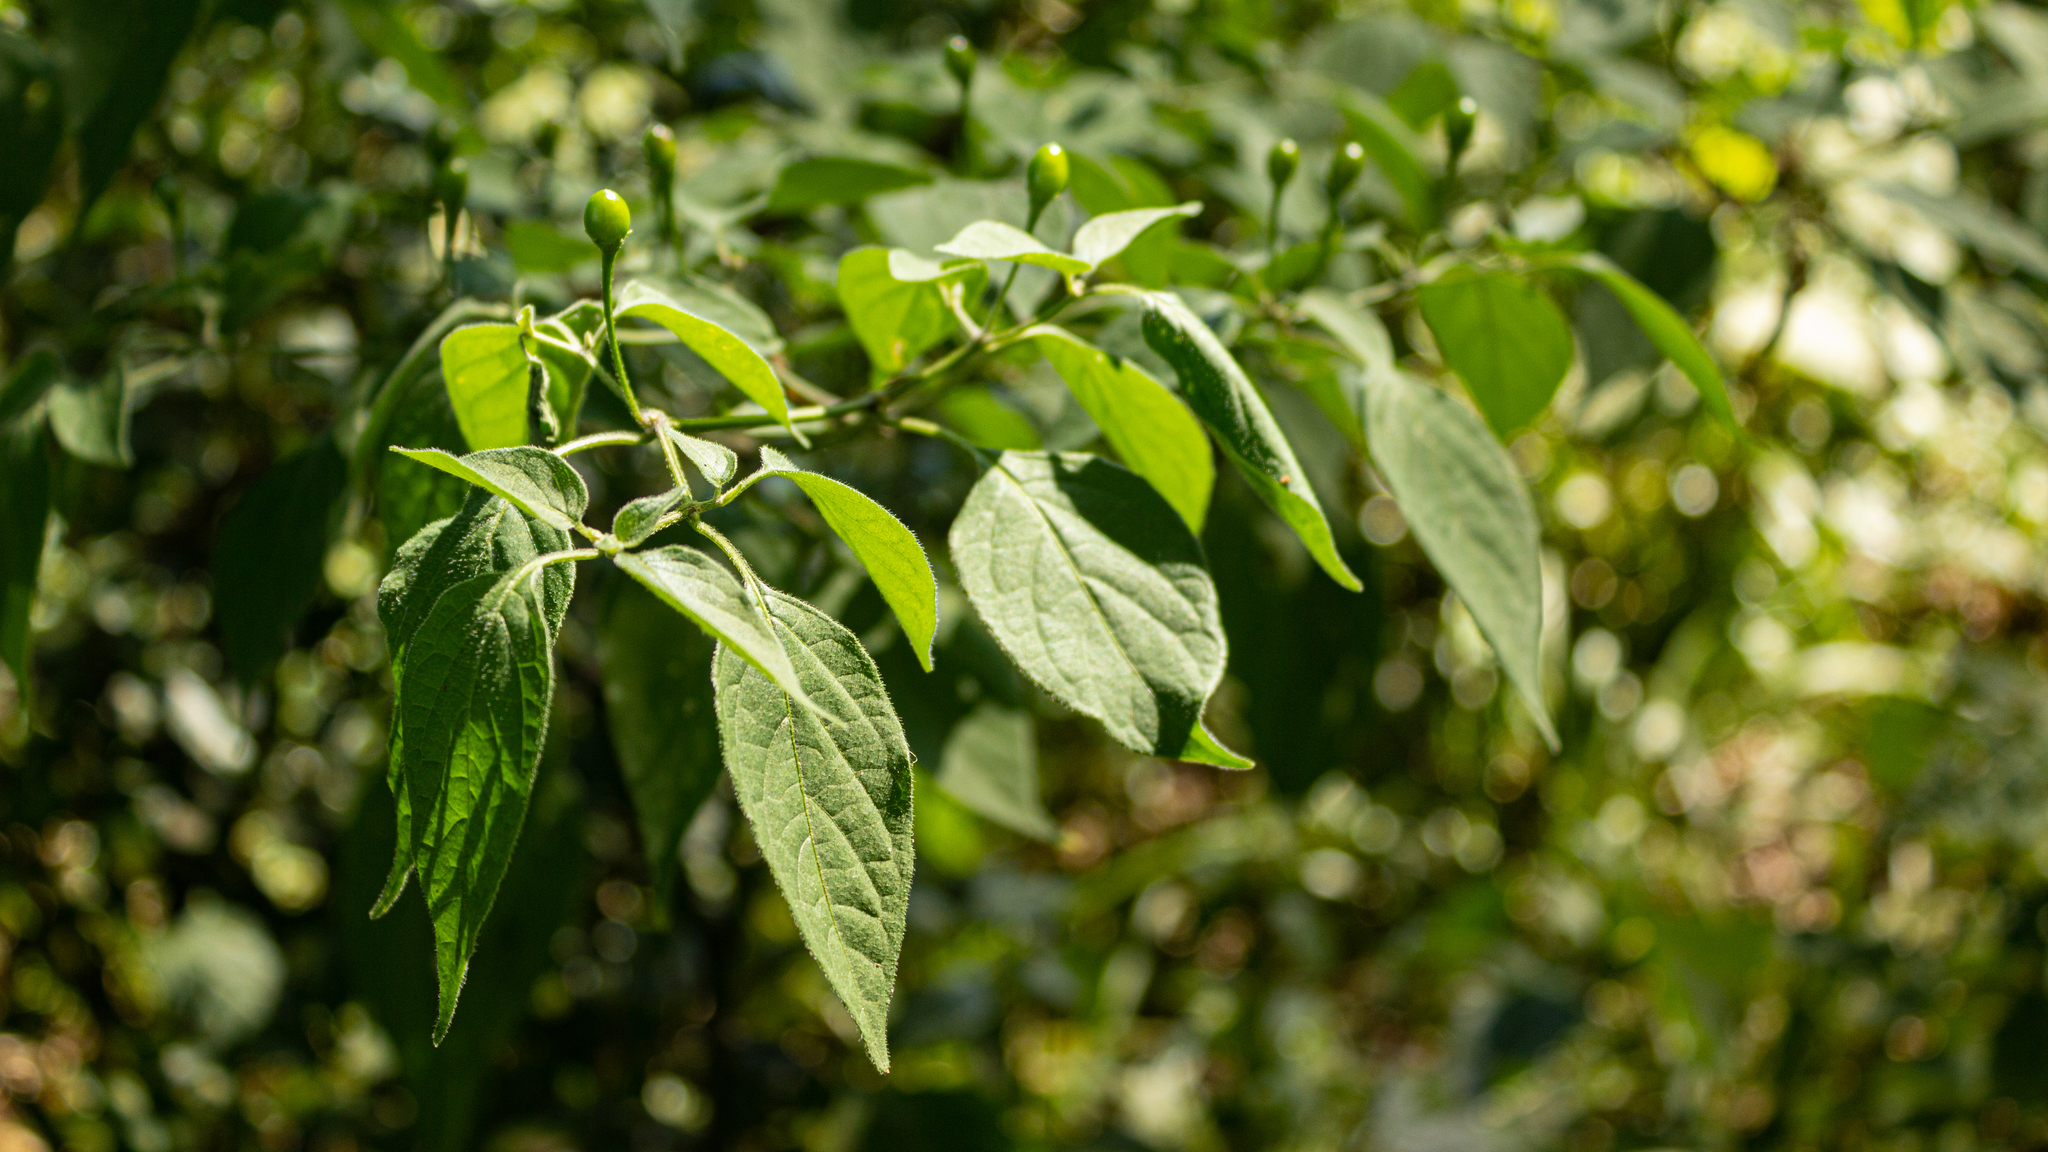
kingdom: Plantae
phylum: Tracheophyta
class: Magnoliopsida
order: Solanales
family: Solanaceae
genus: Capsicum
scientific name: Capsicum baccatum
